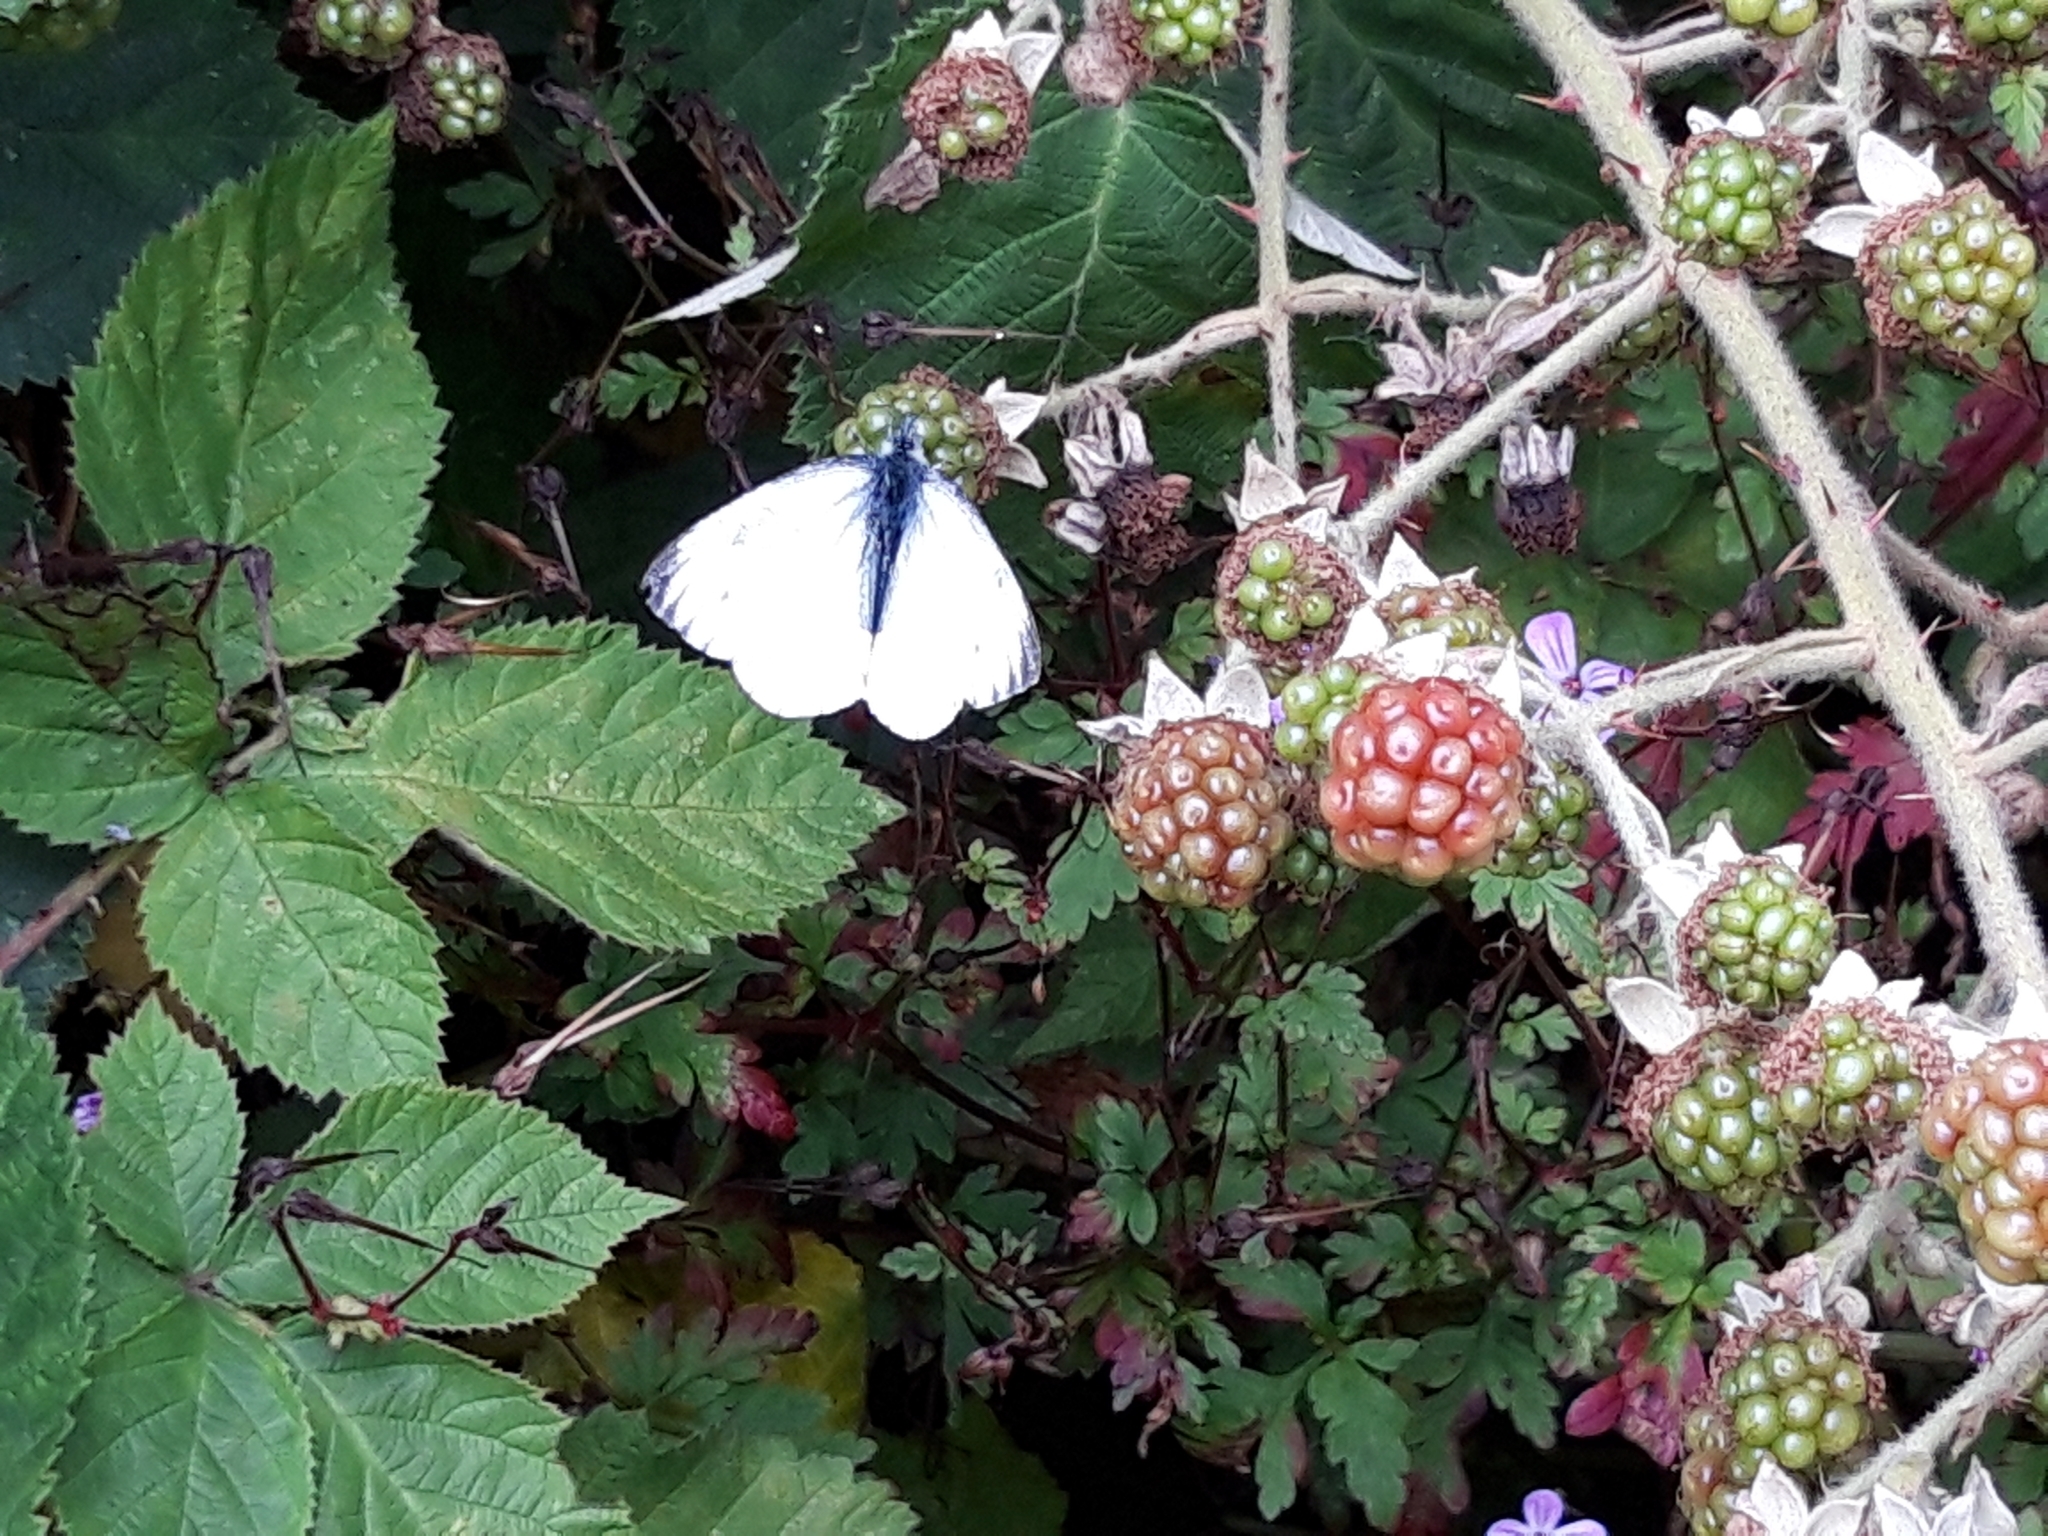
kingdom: Animalia
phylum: Arthropoda
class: Insecta
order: Lepidoptera
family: Pieridae
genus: Pieris
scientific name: Pieris napi
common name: Green-veined white
